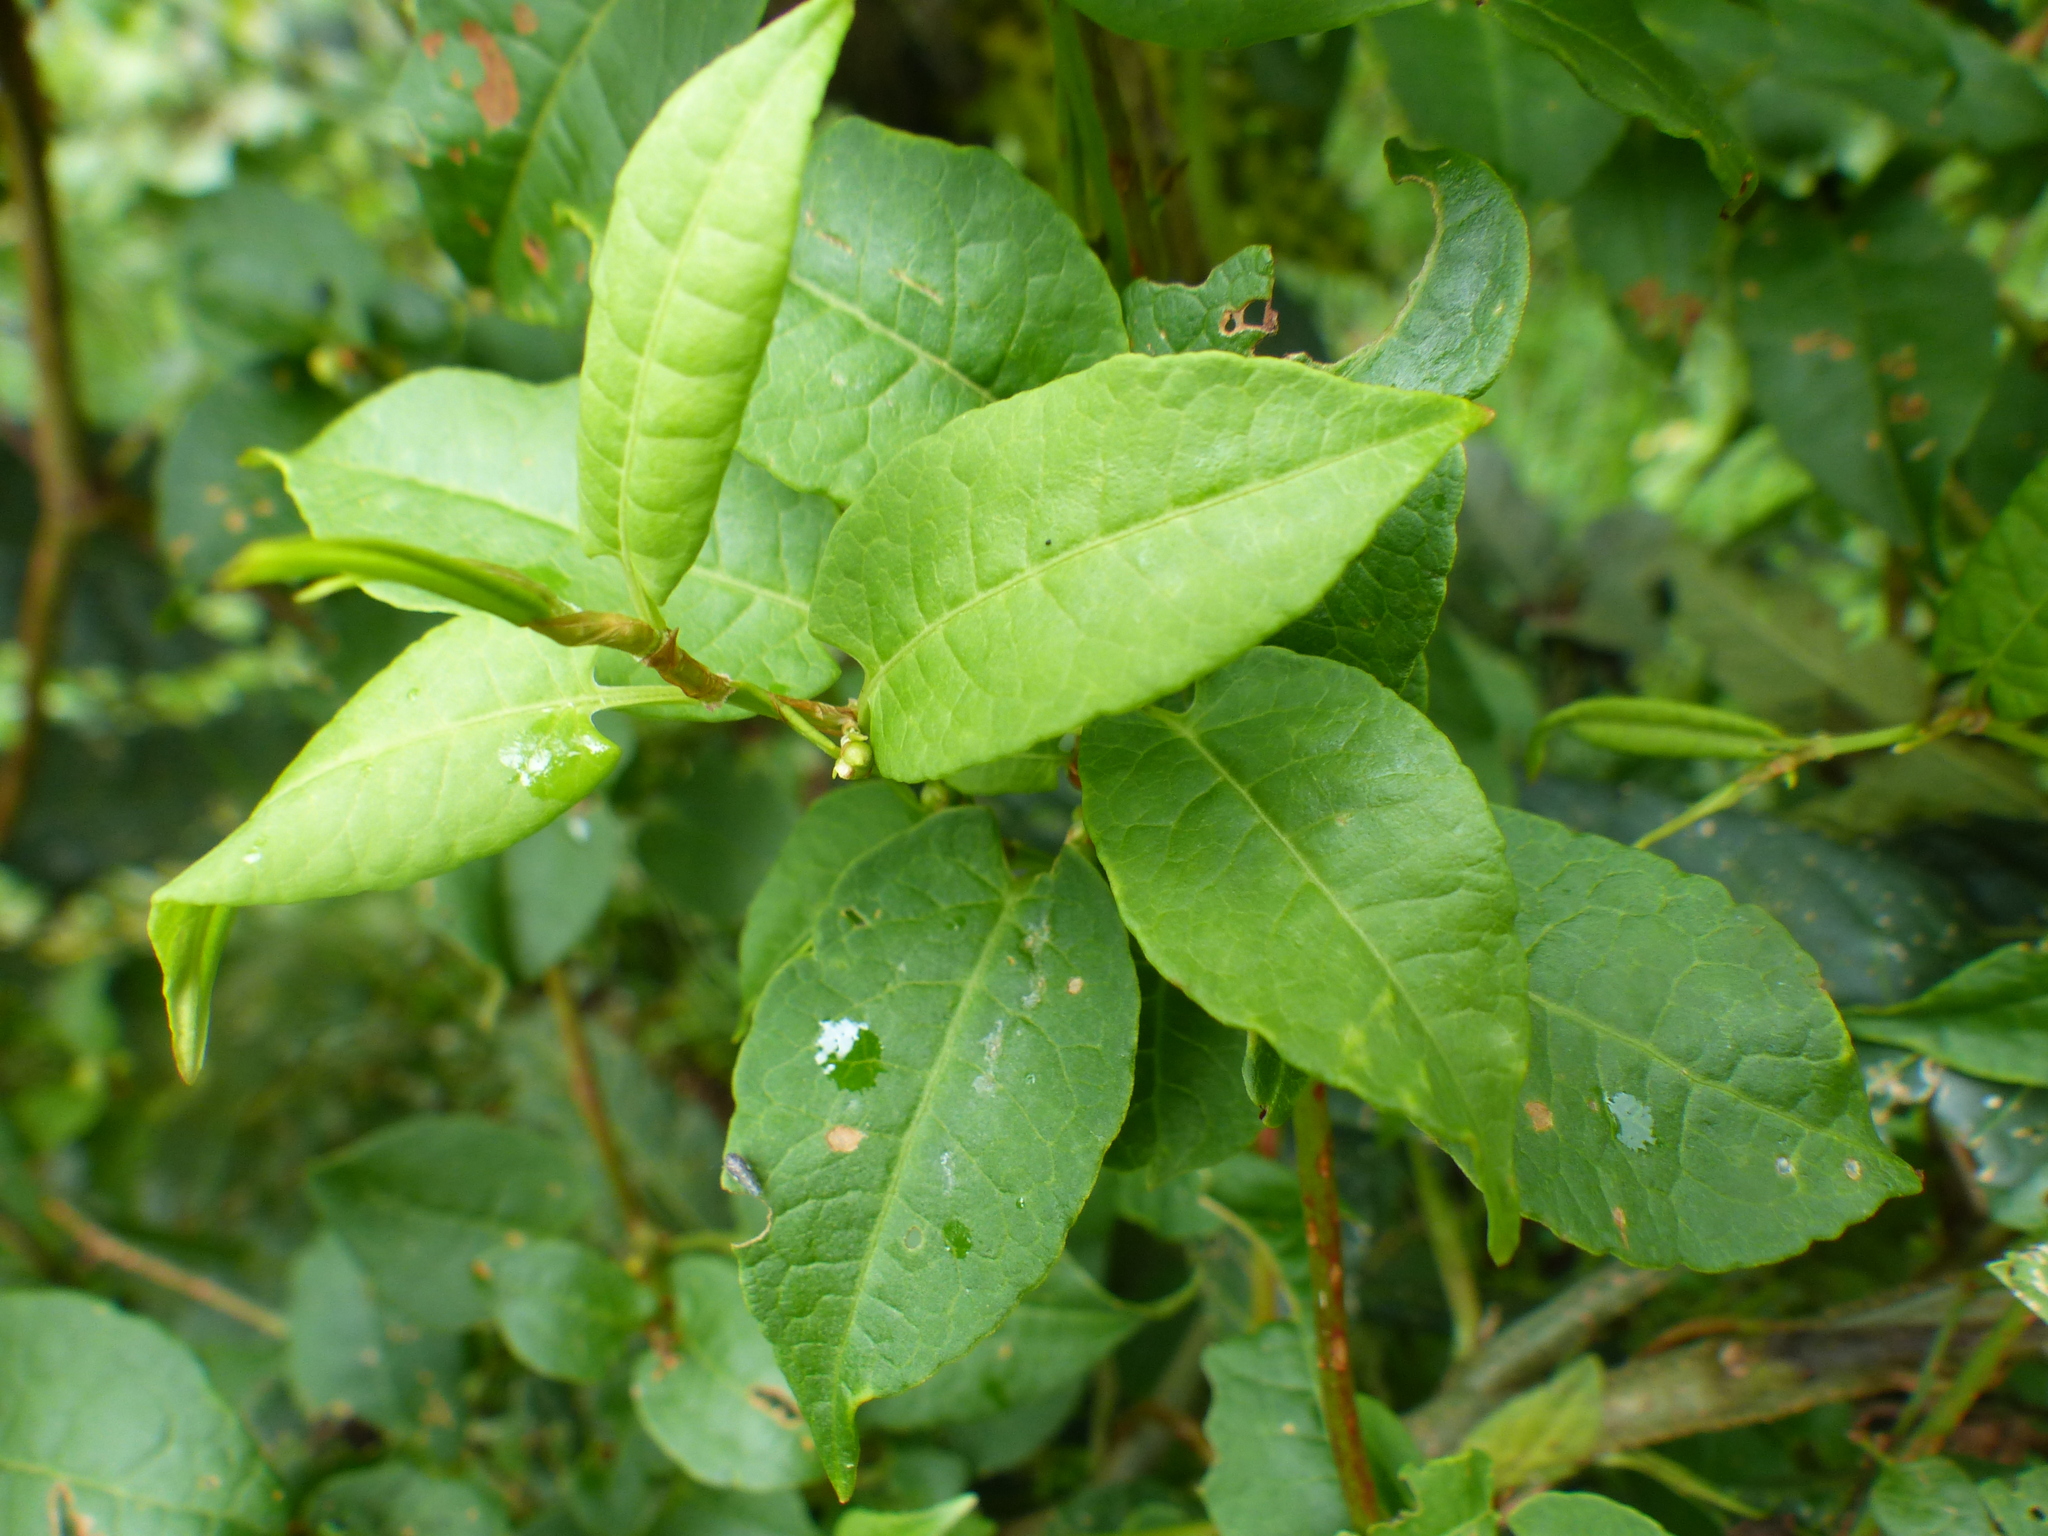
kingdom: Plantae
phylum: Tracheophyta
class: Magnoliopsida
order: Caryophyllales
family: Polygonaceae
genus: Muehlenbeckia
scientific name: Muehlenbeckia tamnifolia
